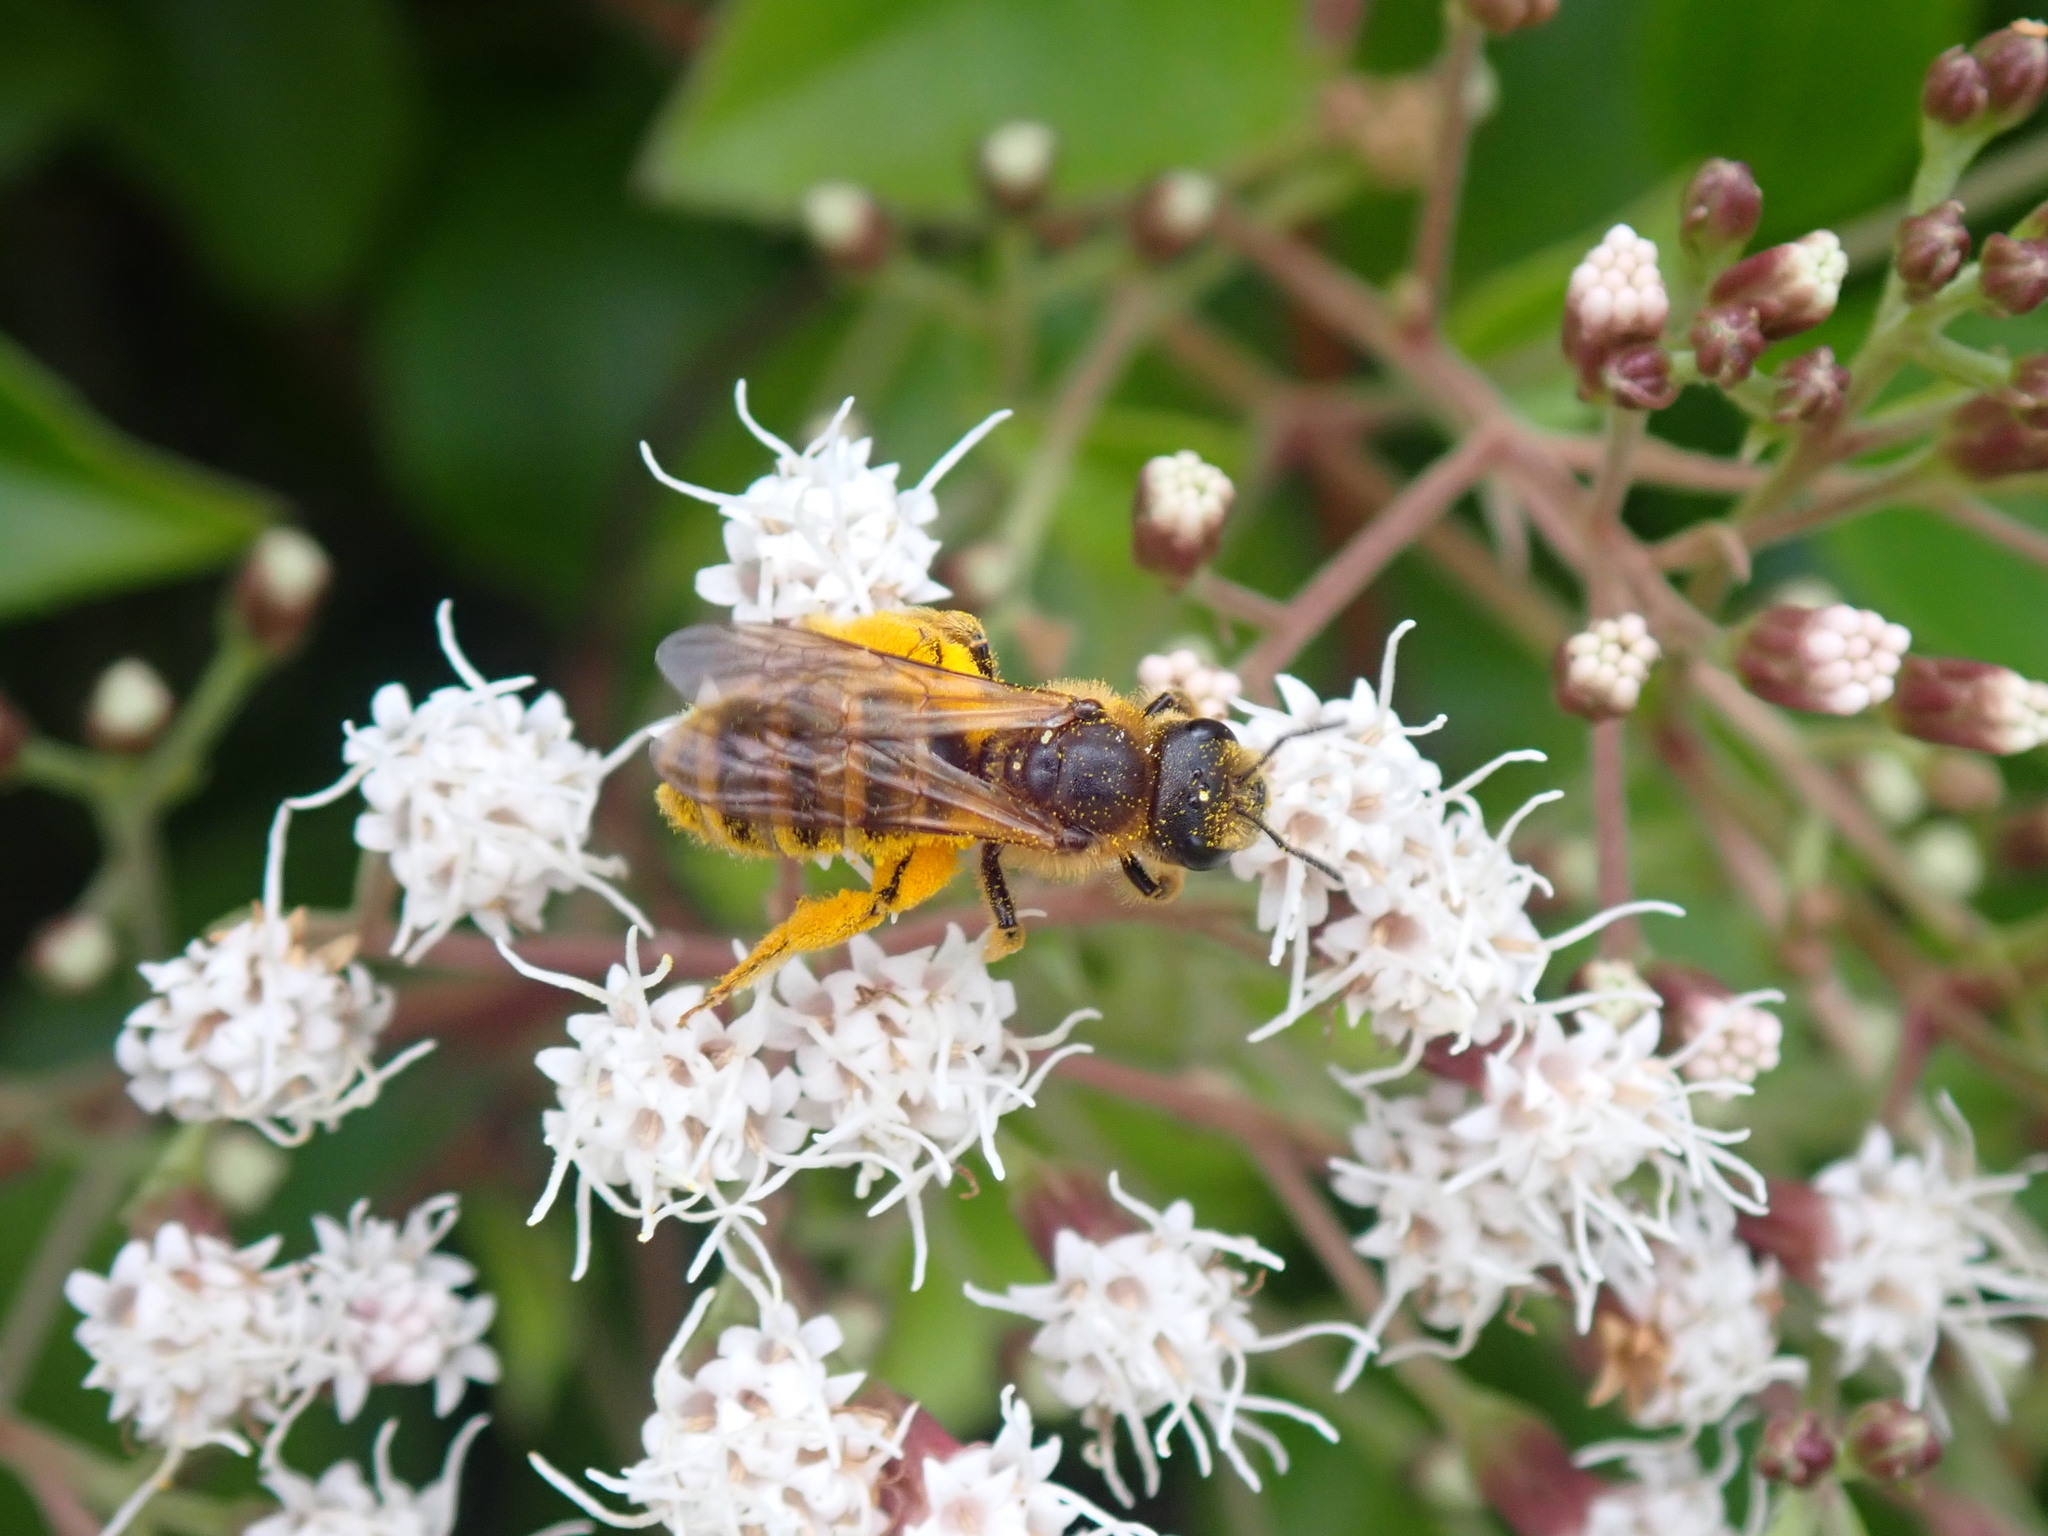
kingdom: Animalia
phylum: Arthropoda
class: Insecta
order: Hymenoptera
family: Halictidae
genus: Halictus
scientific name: Halictus scabiosae
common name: Great banded furrow bee
